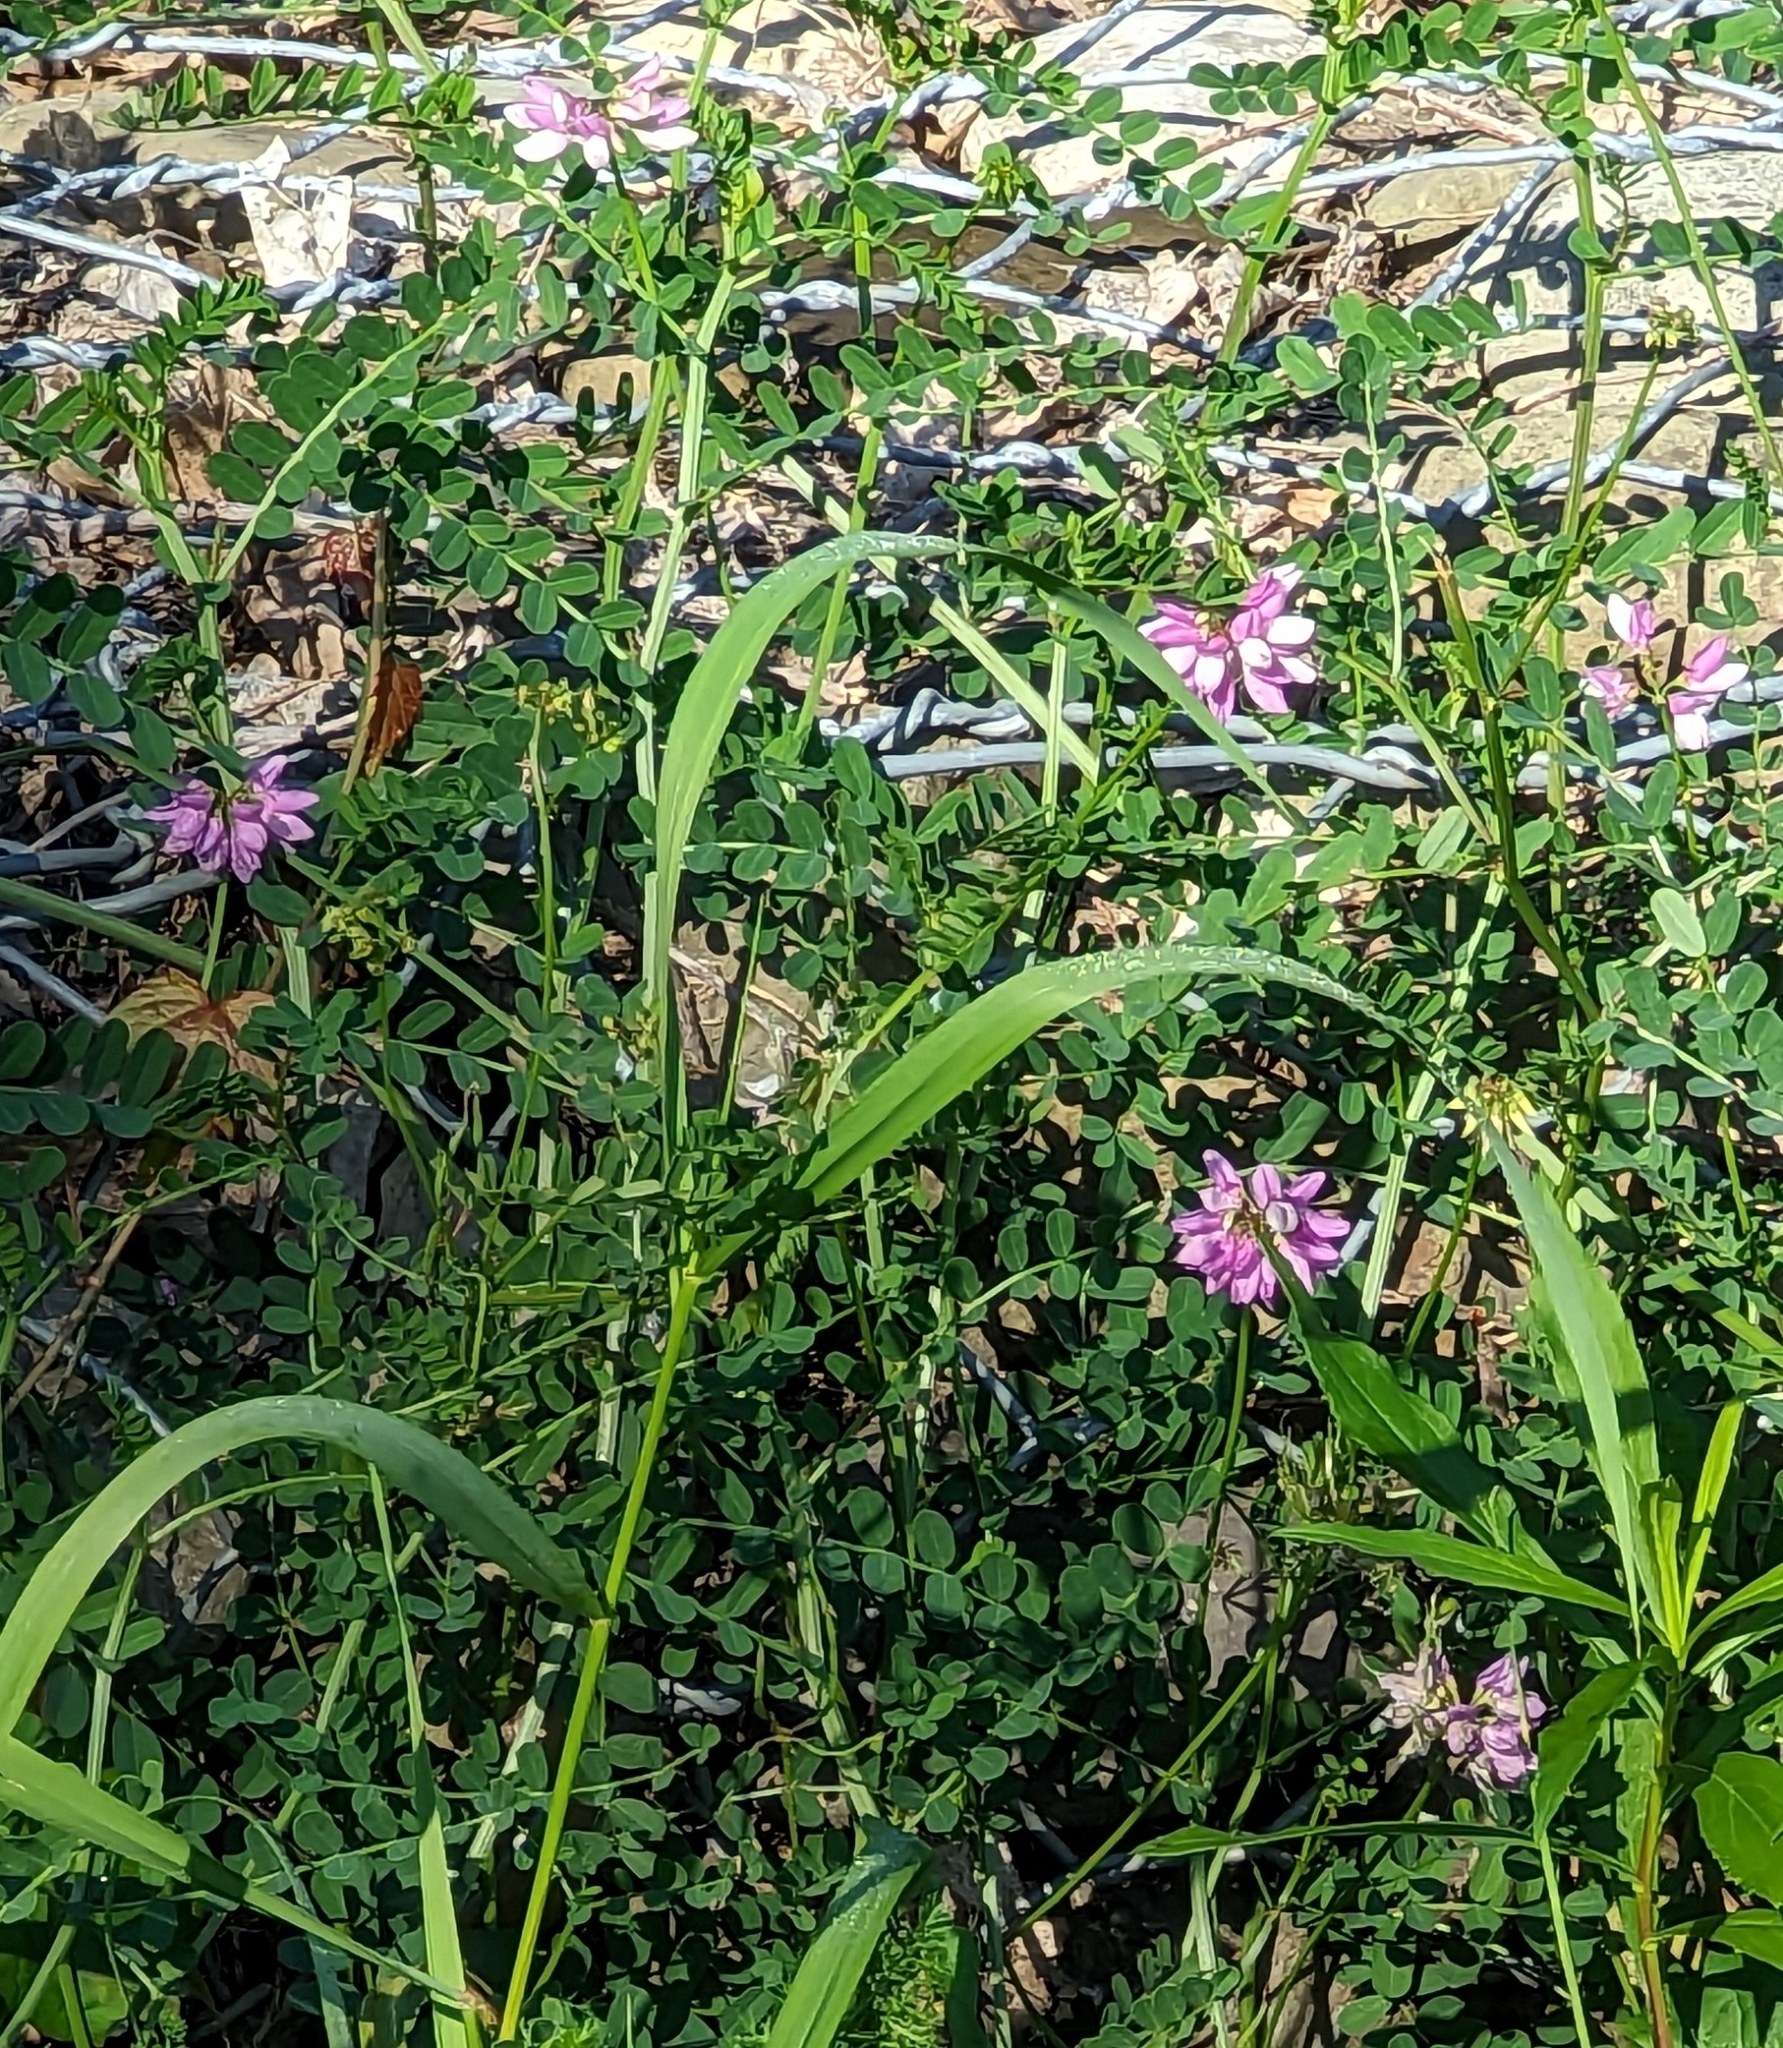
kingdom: Plantae
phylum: Tracheophyta
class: Magnoliopsida
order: Fabales
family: Fabaceae
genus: Coronilla
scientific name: Coronilla varia
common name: Crownvetch
